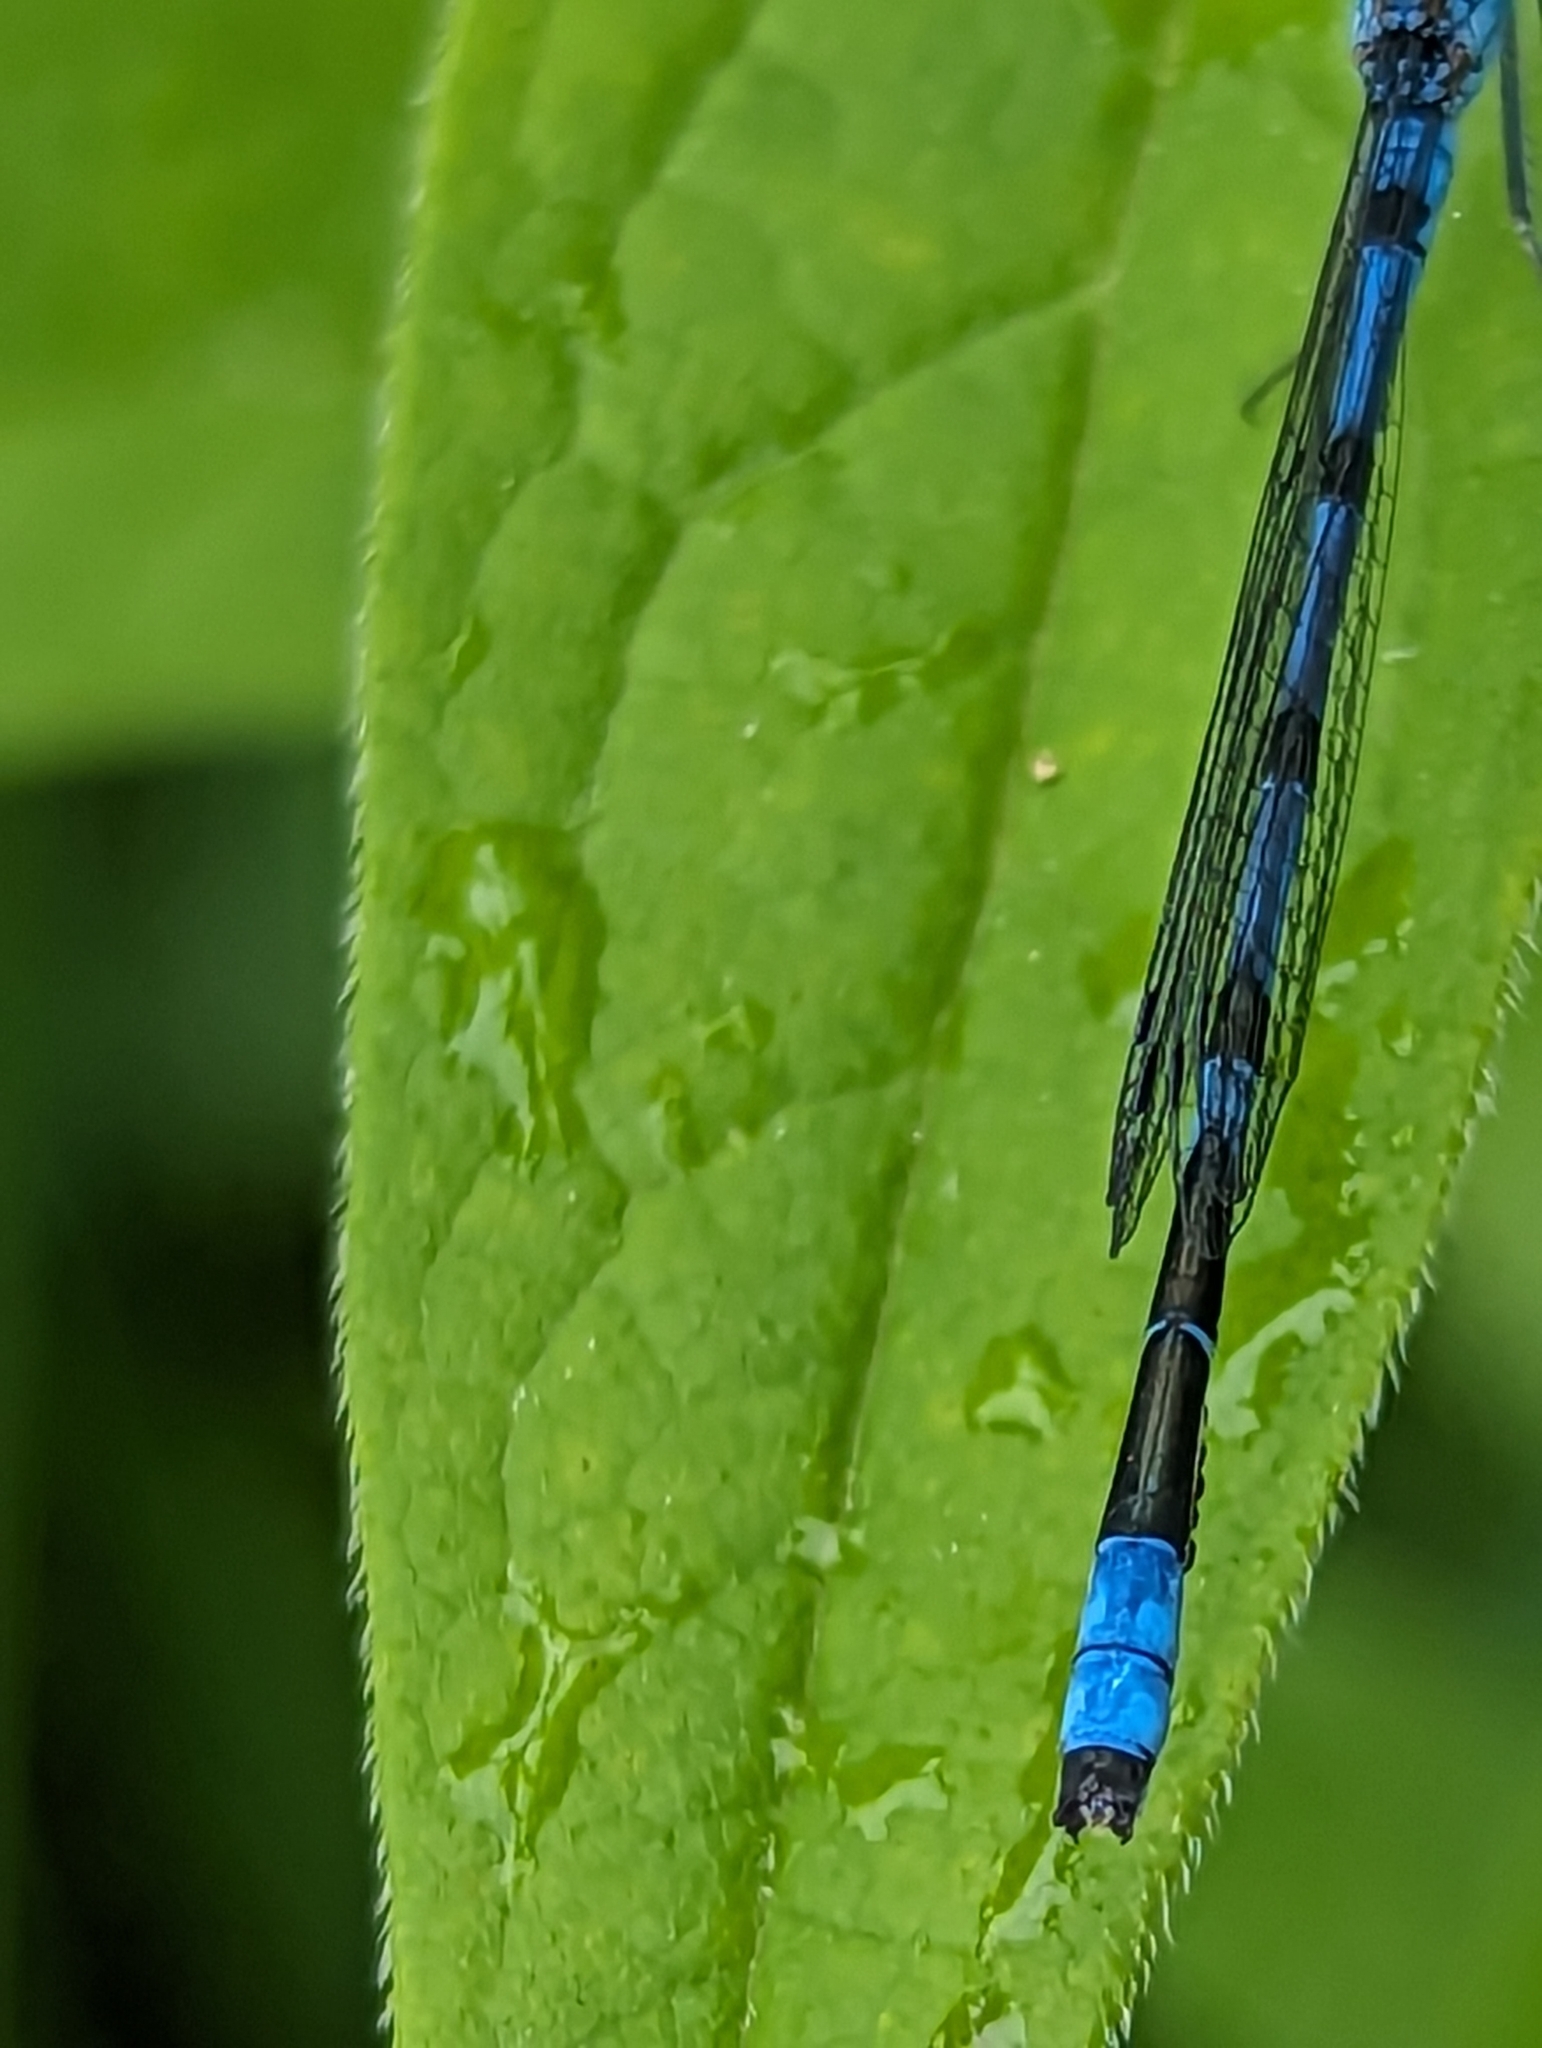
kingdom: Animalia
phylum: Arthropoda
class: Insecta
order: Odonata
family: Coenagrionidae
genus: Enallagma
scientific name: Enallagma ebrium
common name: Marsh bluet
